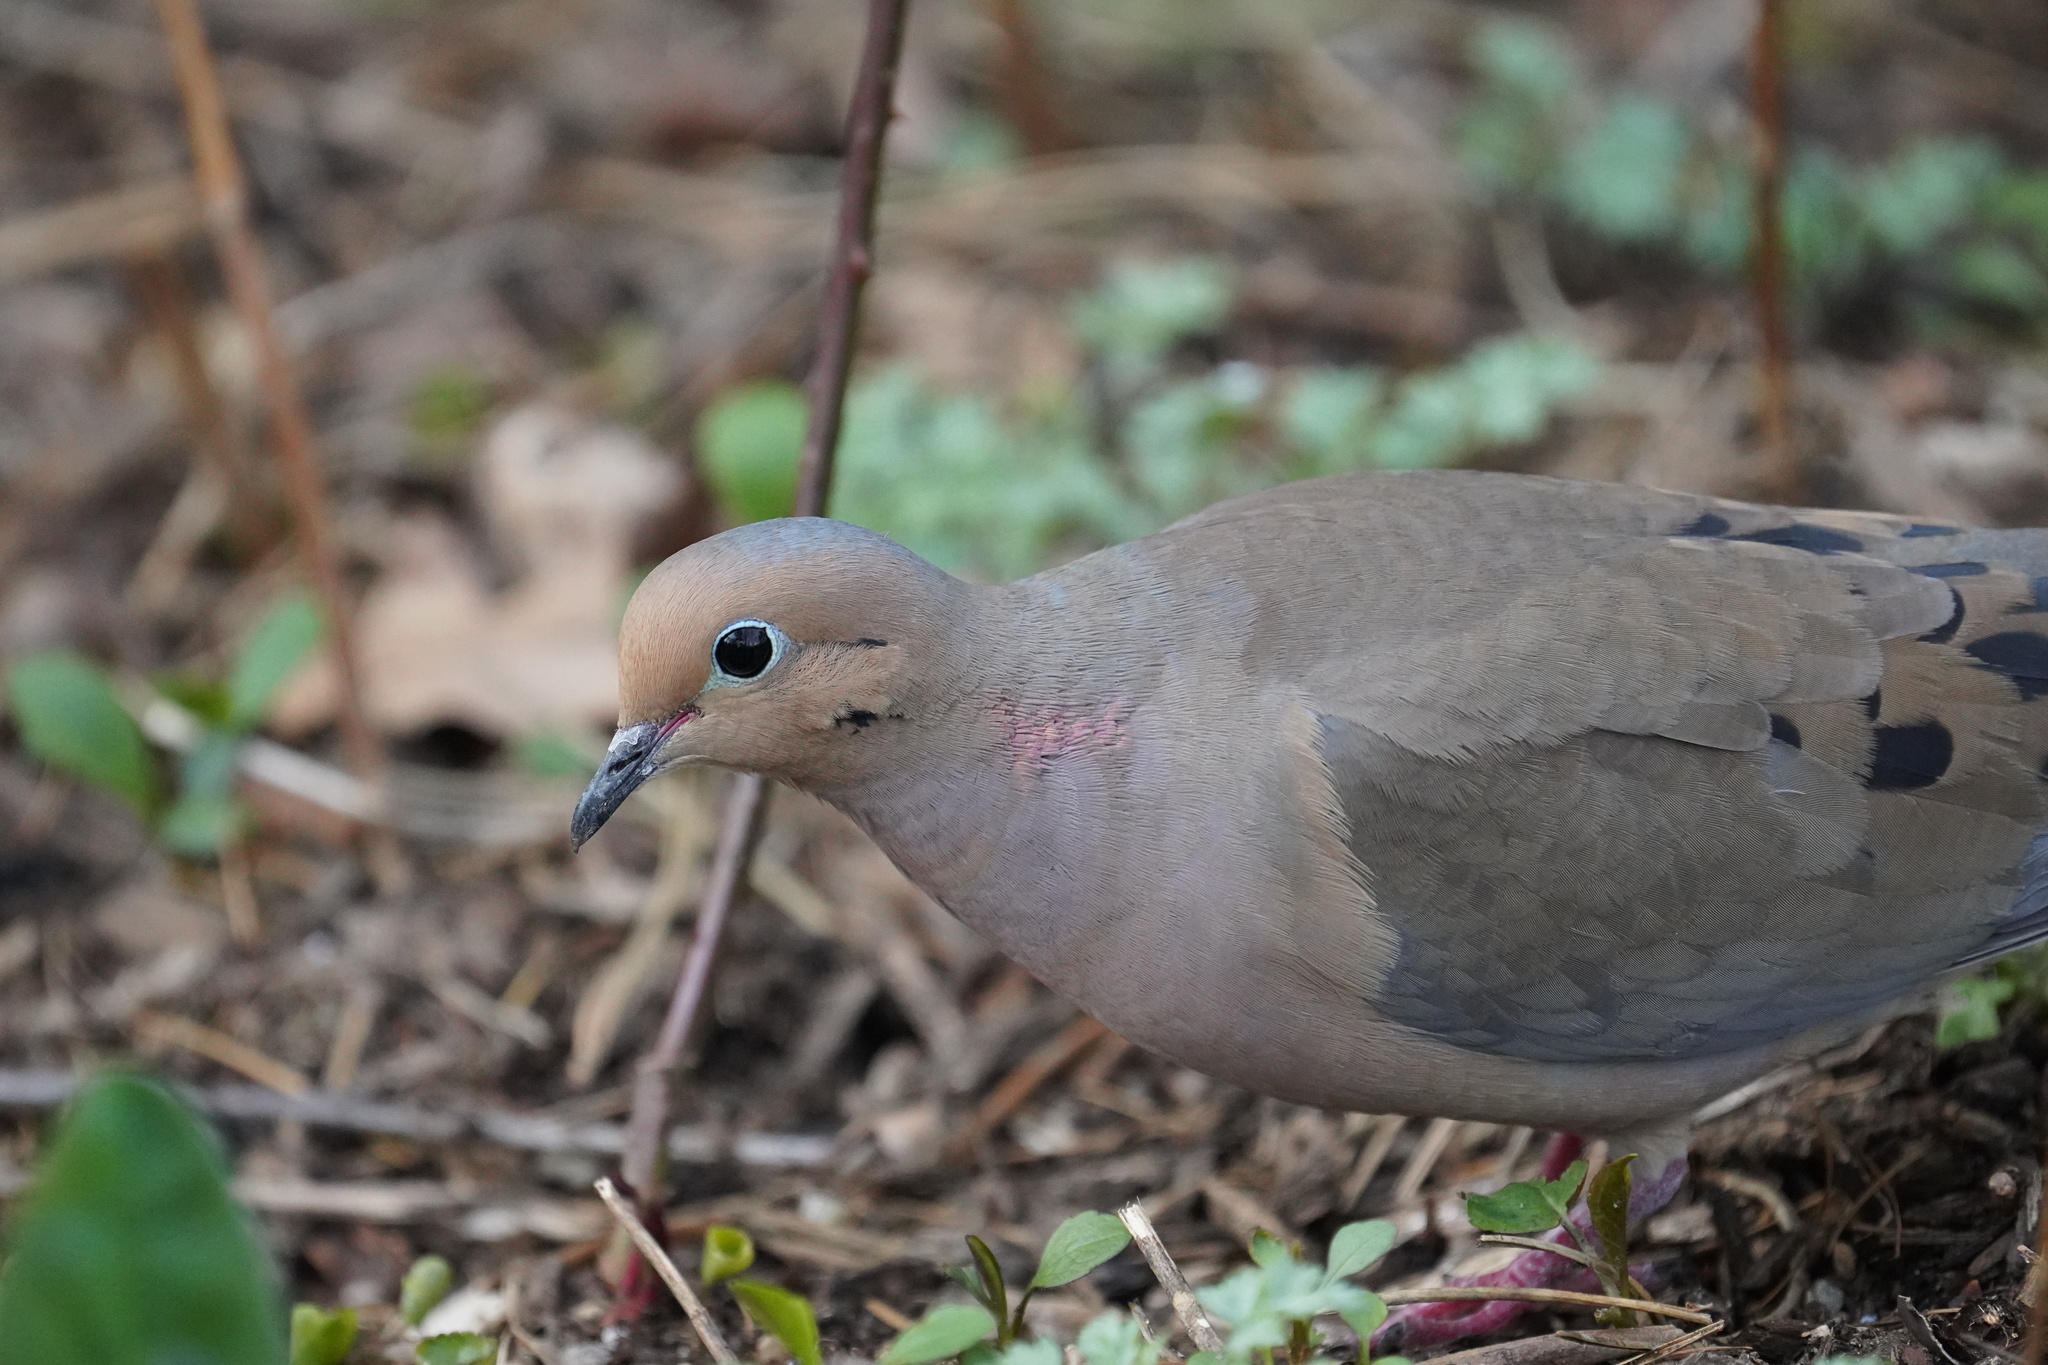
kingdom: Animalia
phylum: Chordata
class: Aves
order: Columbiformes
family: Columbidae
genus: Zenaida
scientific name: Zenaida macroura
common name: Mourning dove
